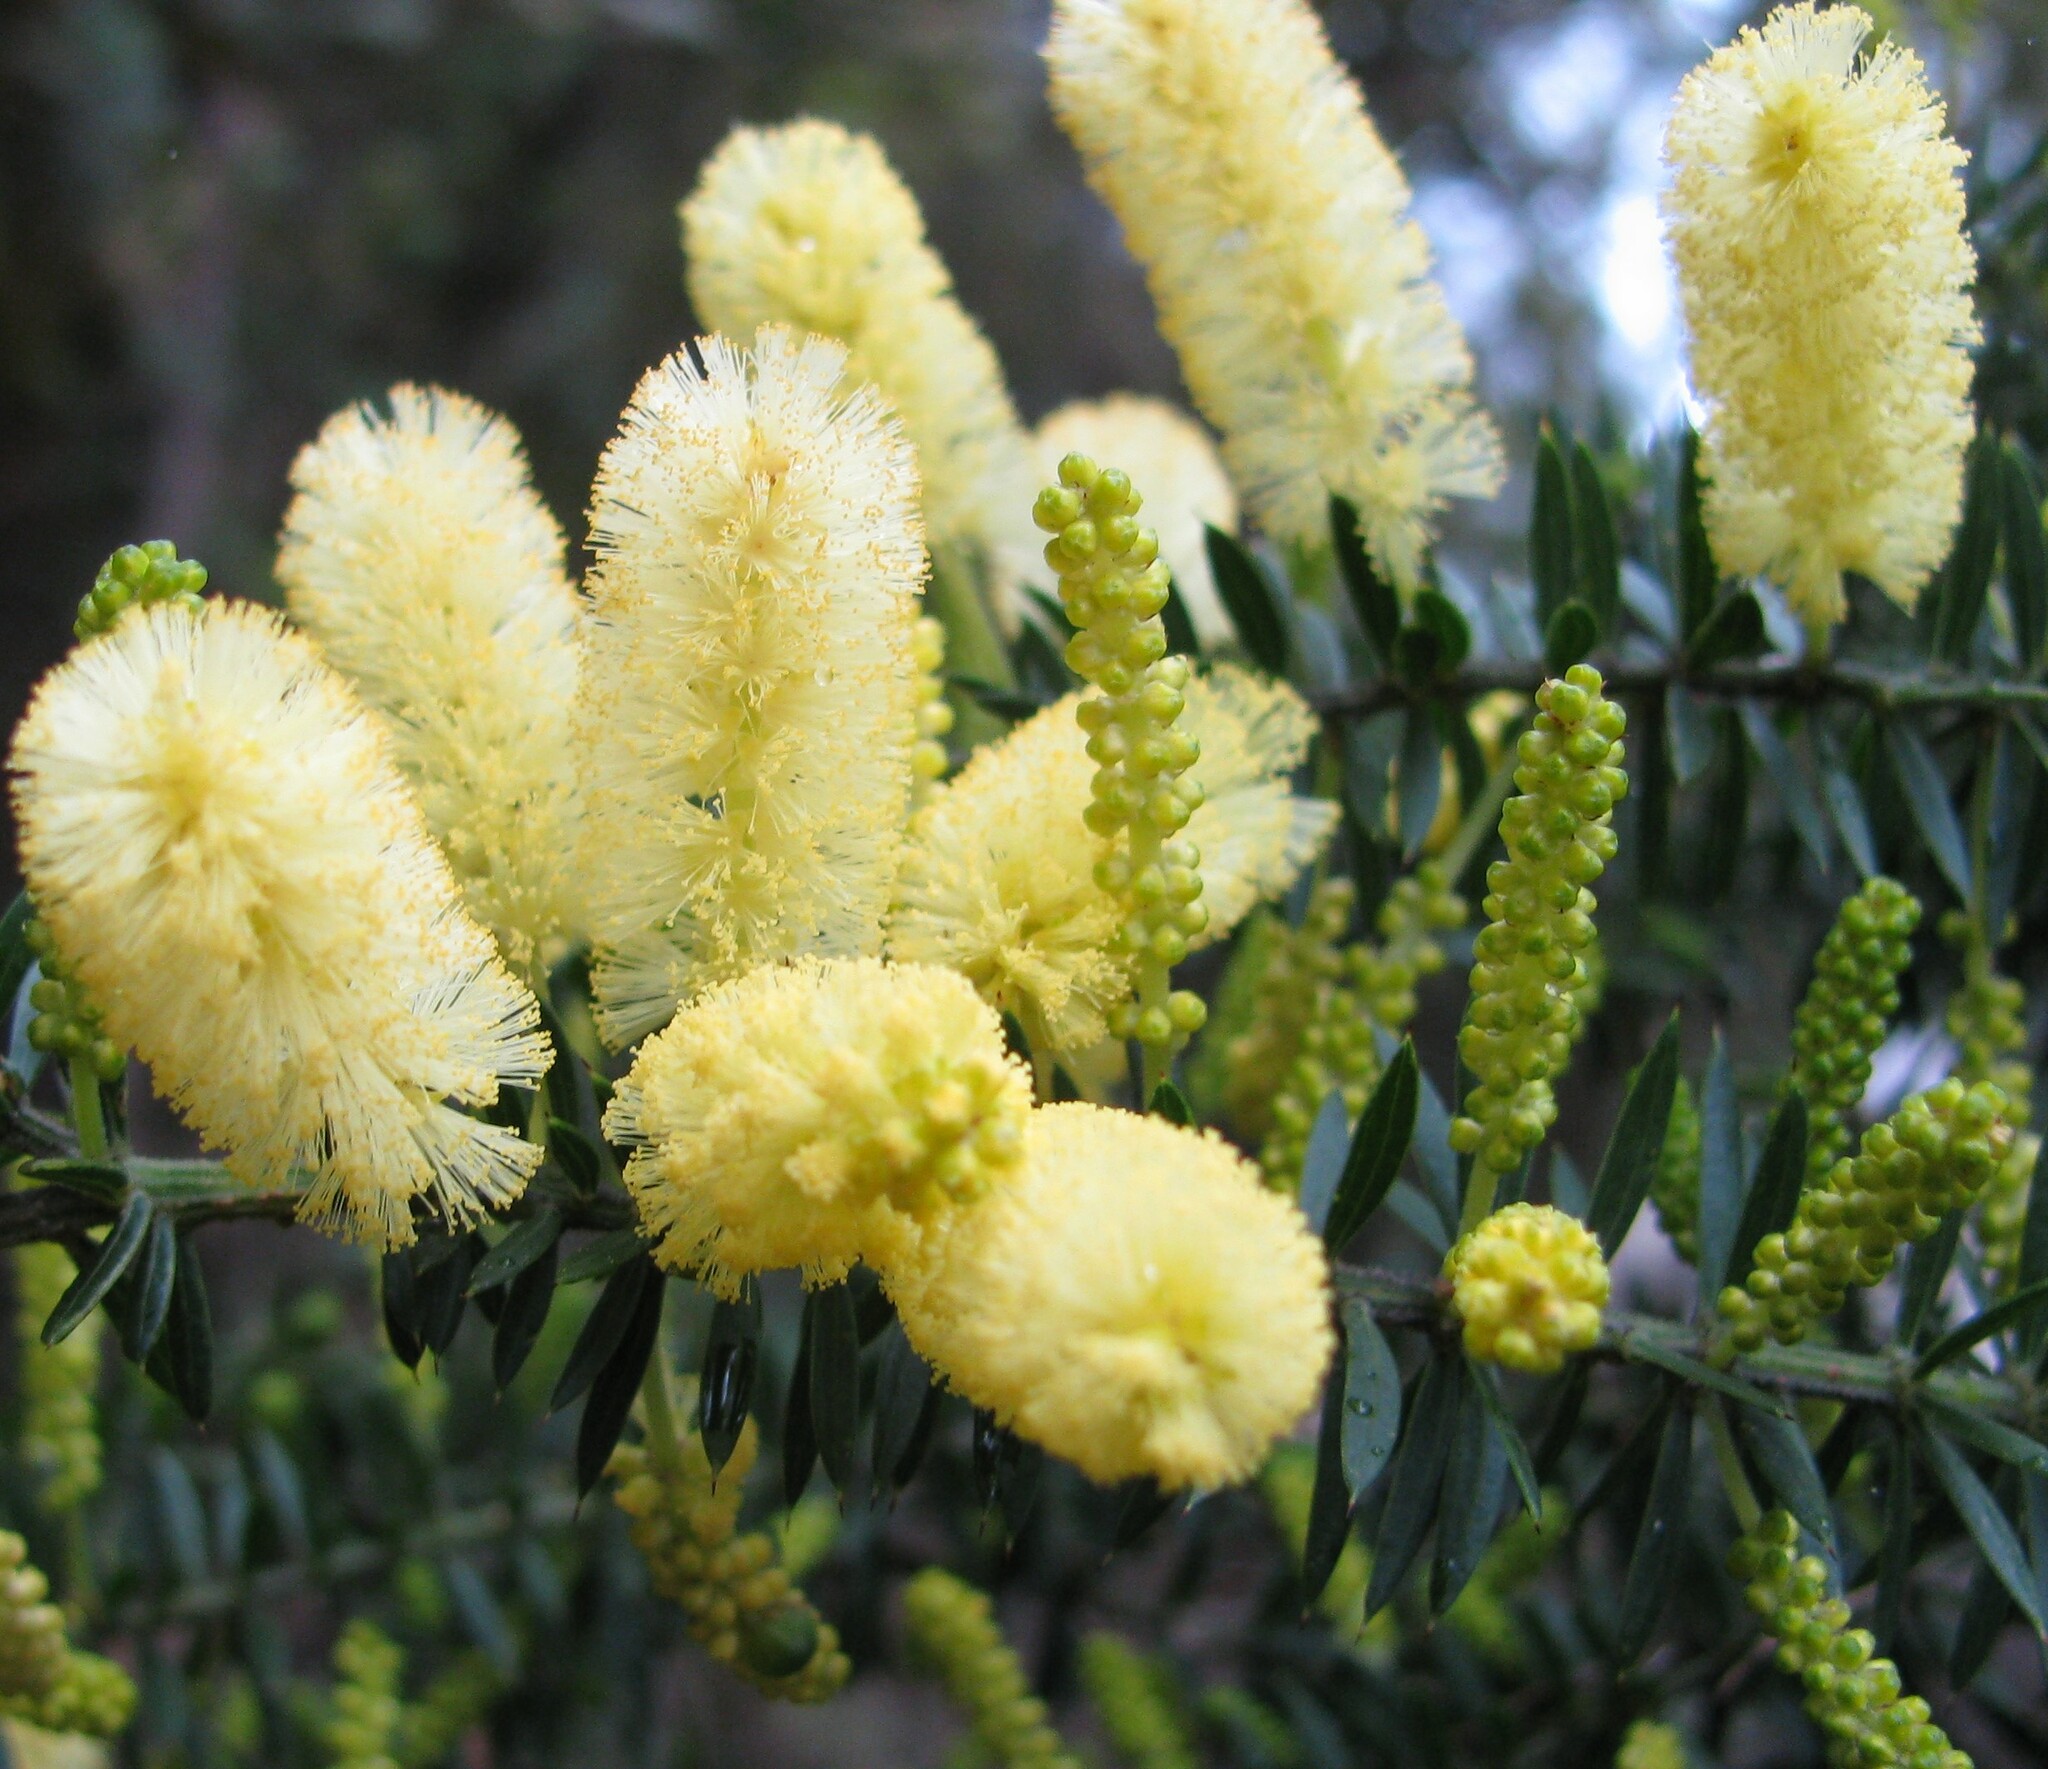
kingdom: Plantae
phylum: Tracheophyta
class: Magnoliopsida
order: Fabales
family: Fabaceae
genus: Acacia
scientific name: Acacia verticillata
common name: Prickly moses
